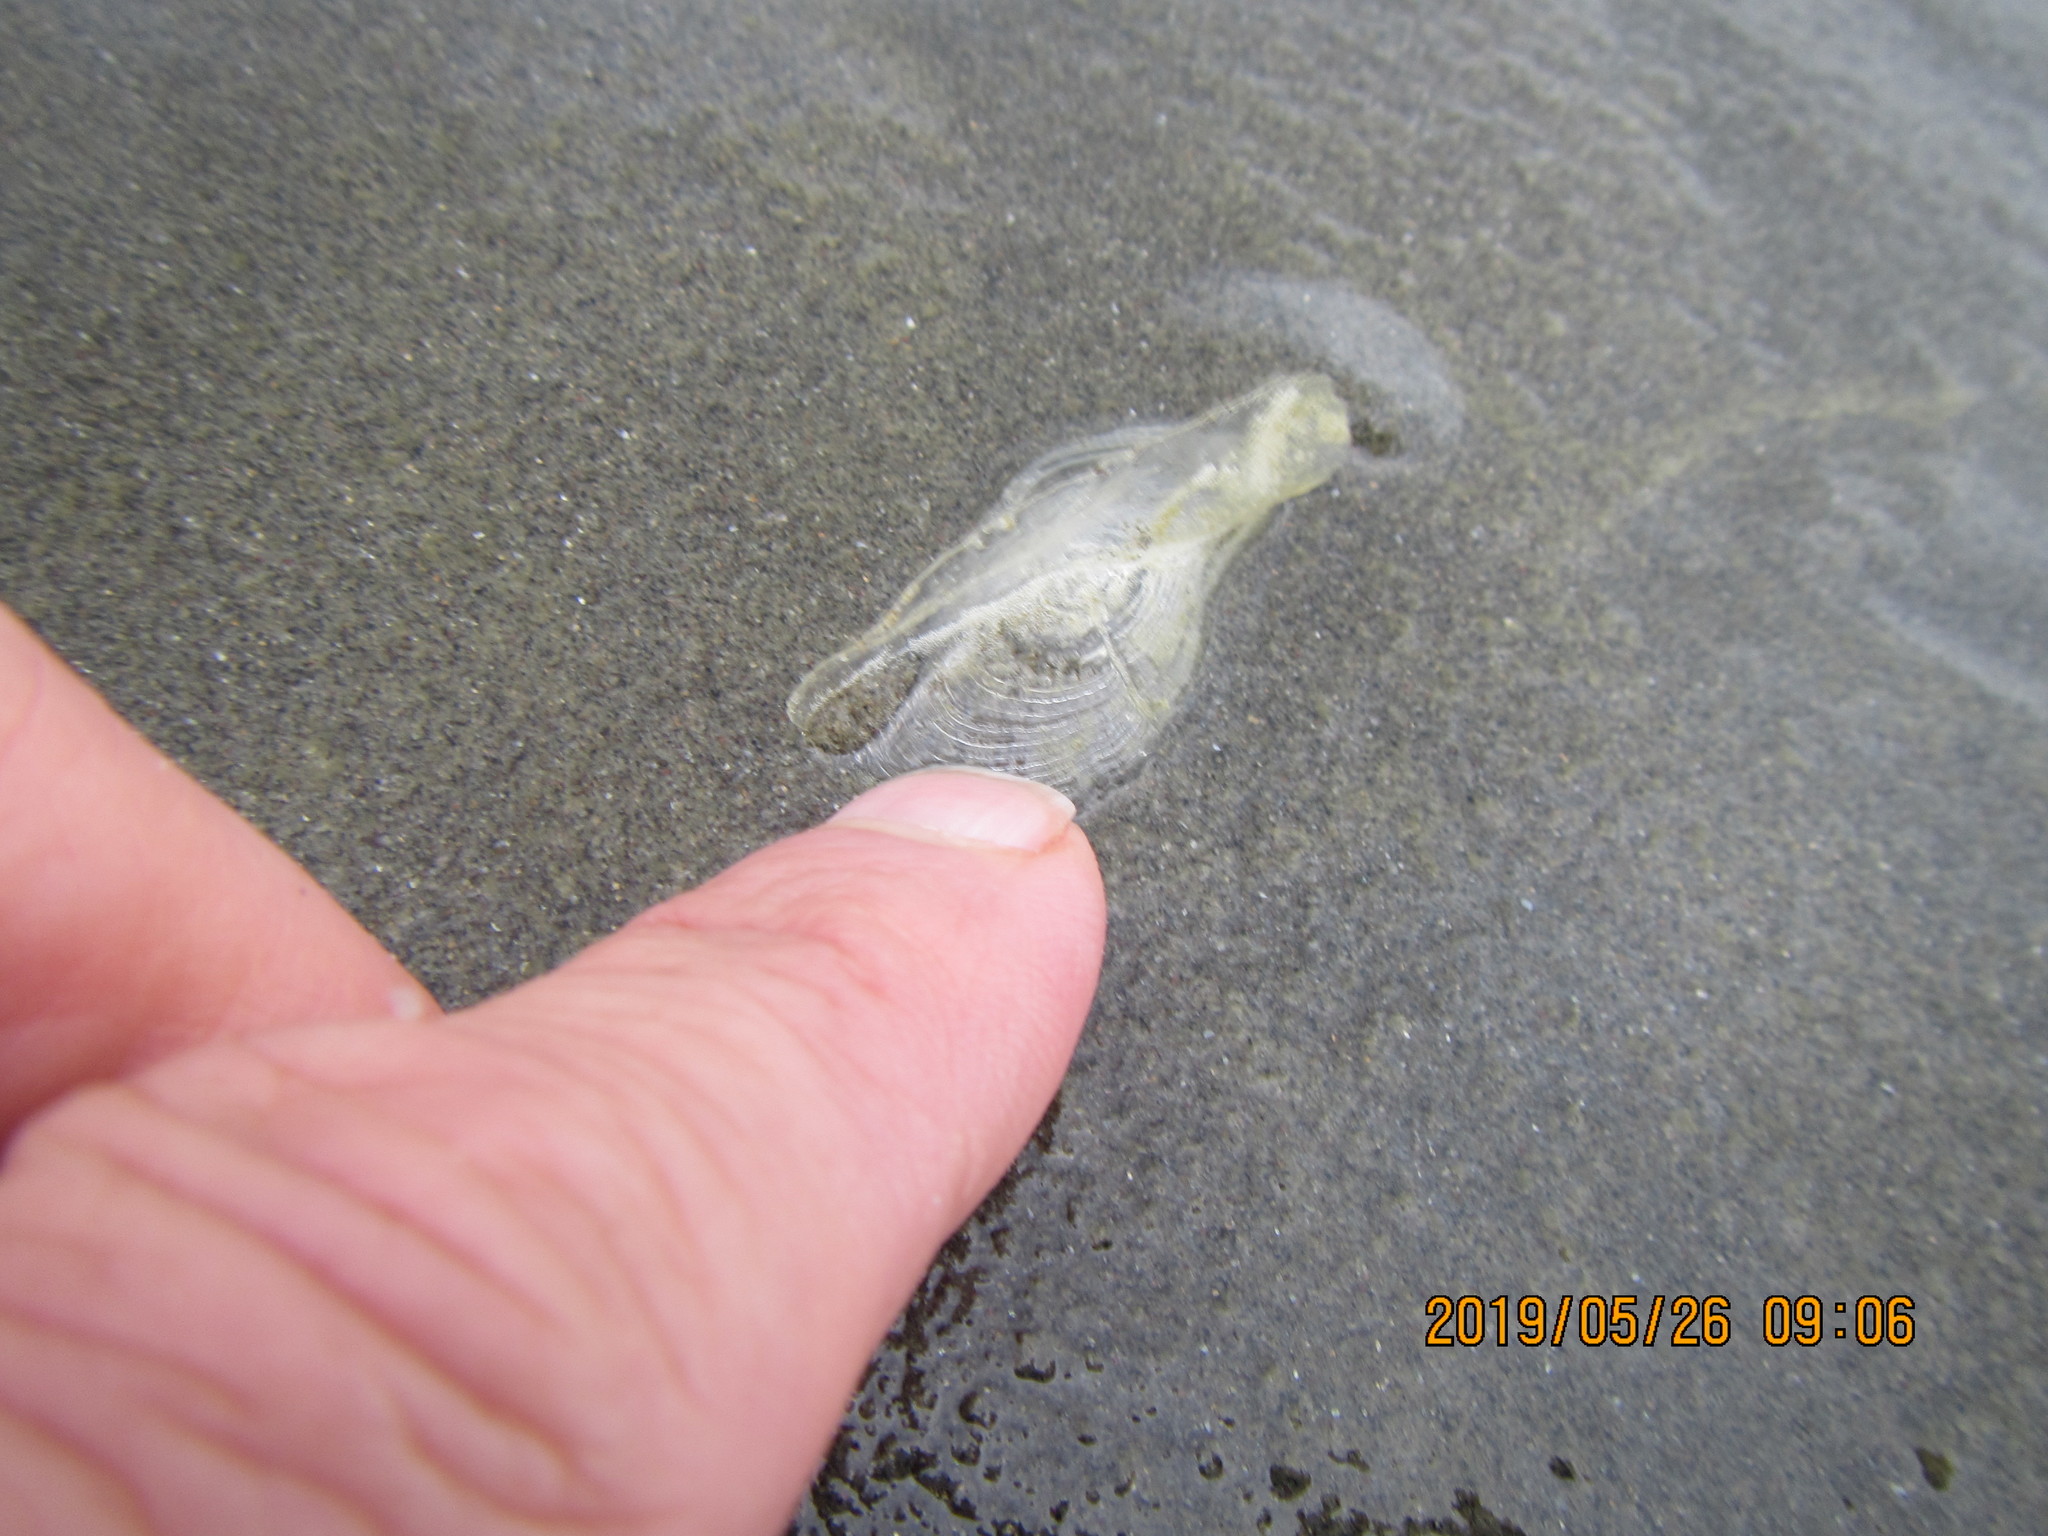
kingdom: Animalia
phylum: Cnidaria
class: Hydrozoa
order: Anthoathecata
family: Porpitidae
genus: Velella
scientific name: Velella velella
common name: By-the-wind-sailor
